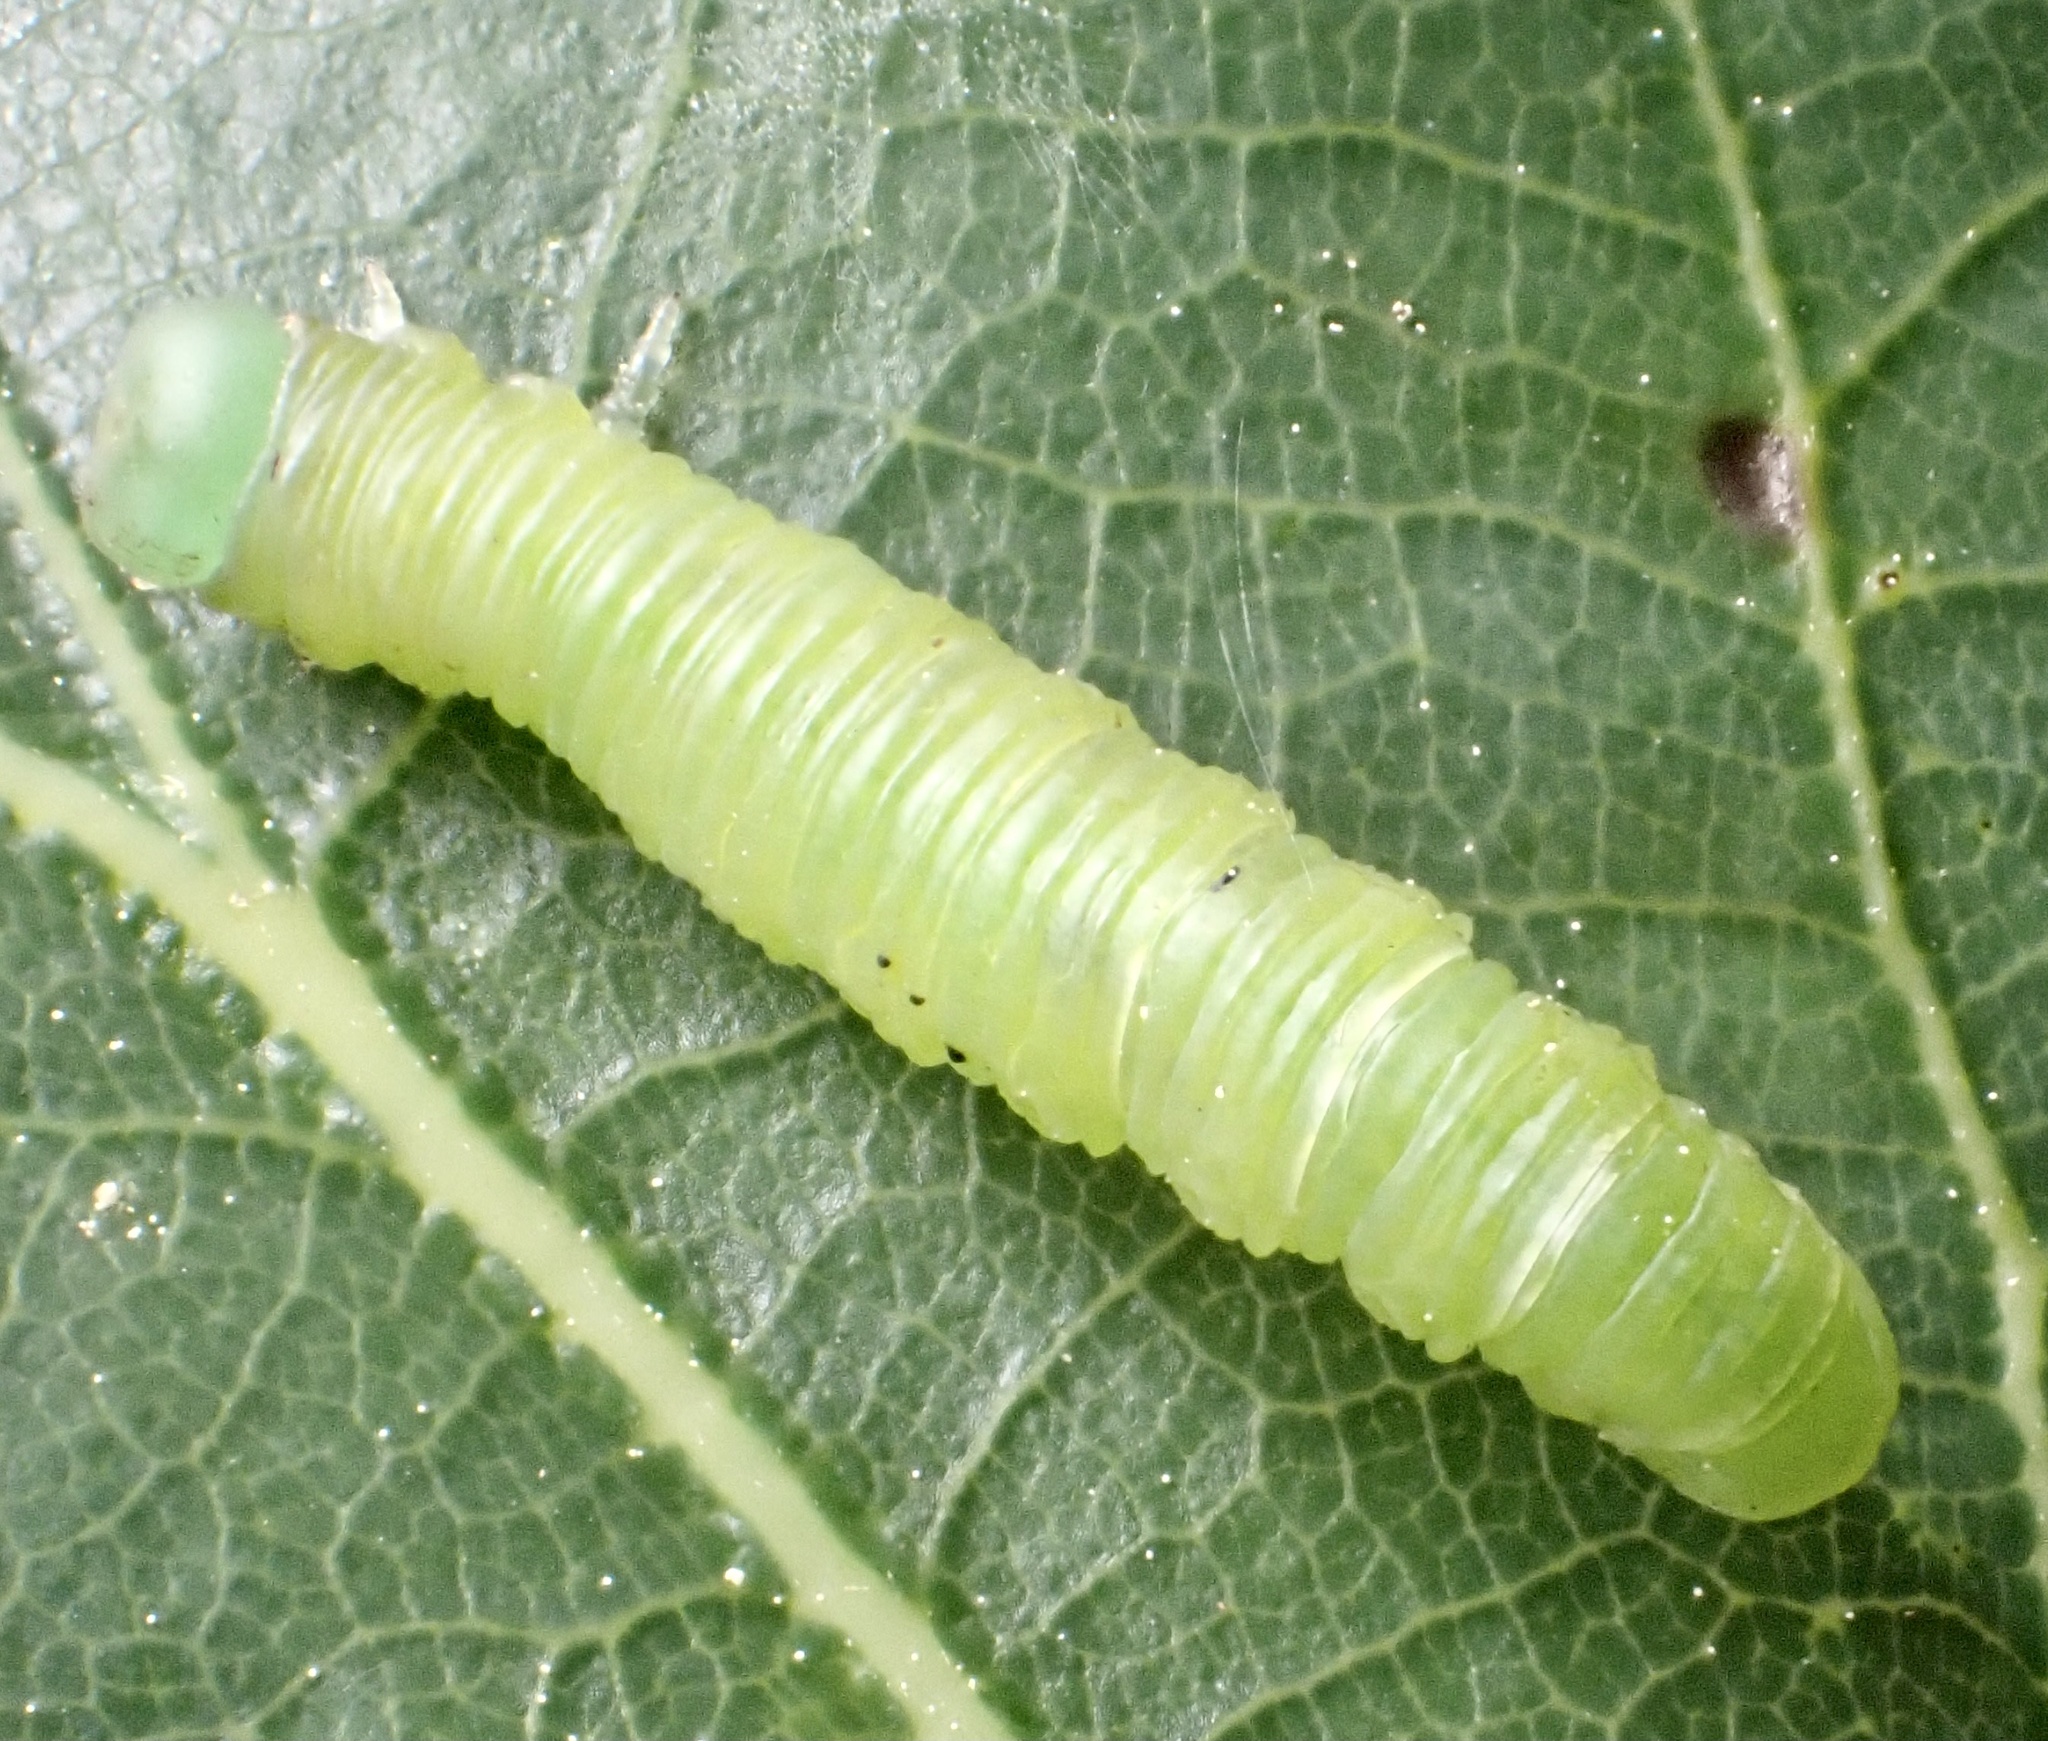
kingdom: Animalia
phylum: Arthropoda
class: Insecta
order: Hymenoptera
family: Tenthredinidae
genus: Mesoneura
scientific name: Mesoneura opaca
